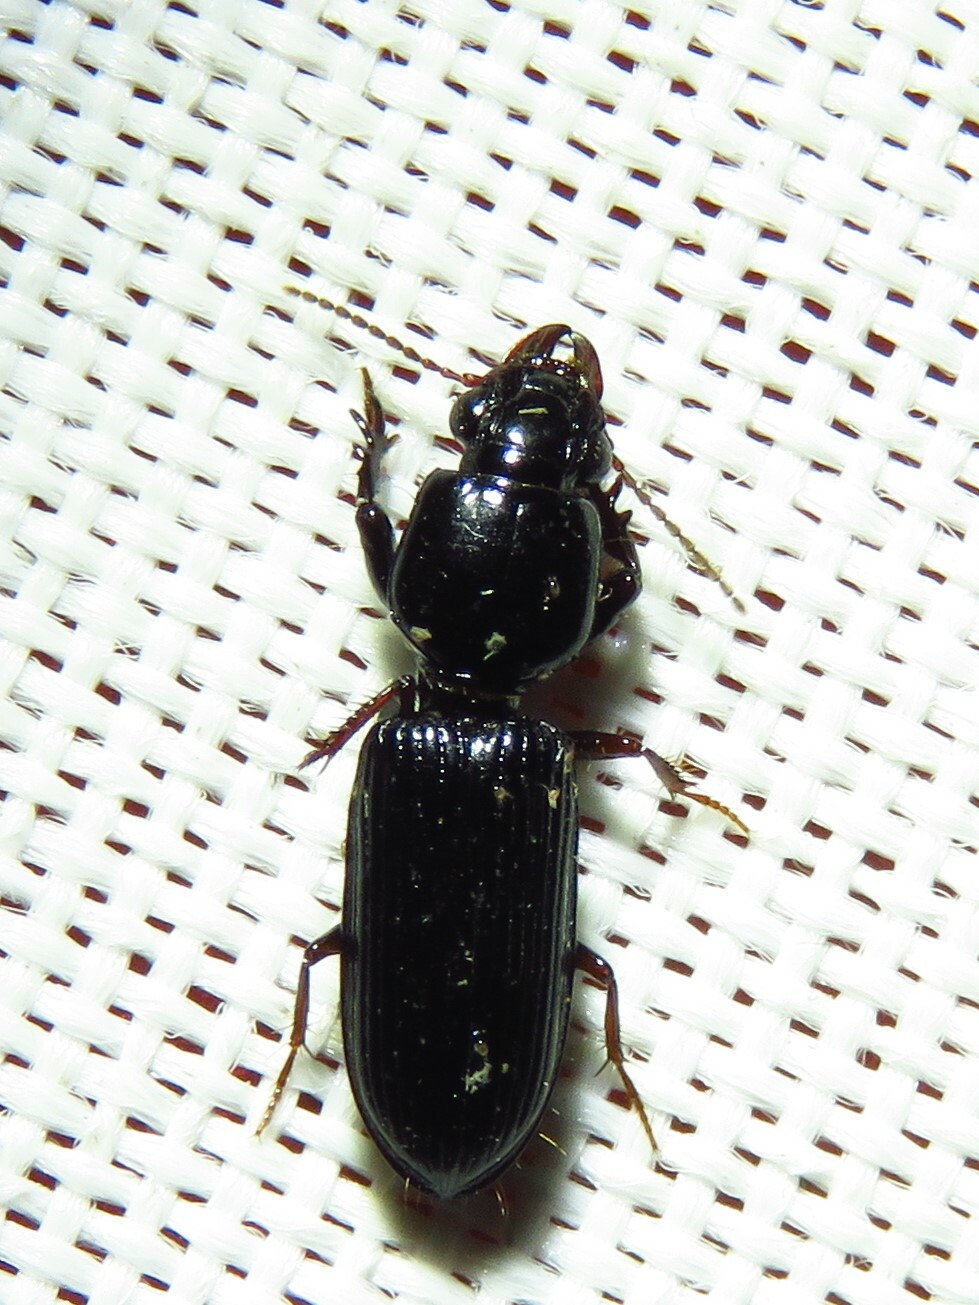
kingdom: Animalia
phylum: Arthropoda
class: Insecta
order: Coleoptera
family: Carabidae
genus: Semiclivina
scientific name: Semiclivina dentipes
